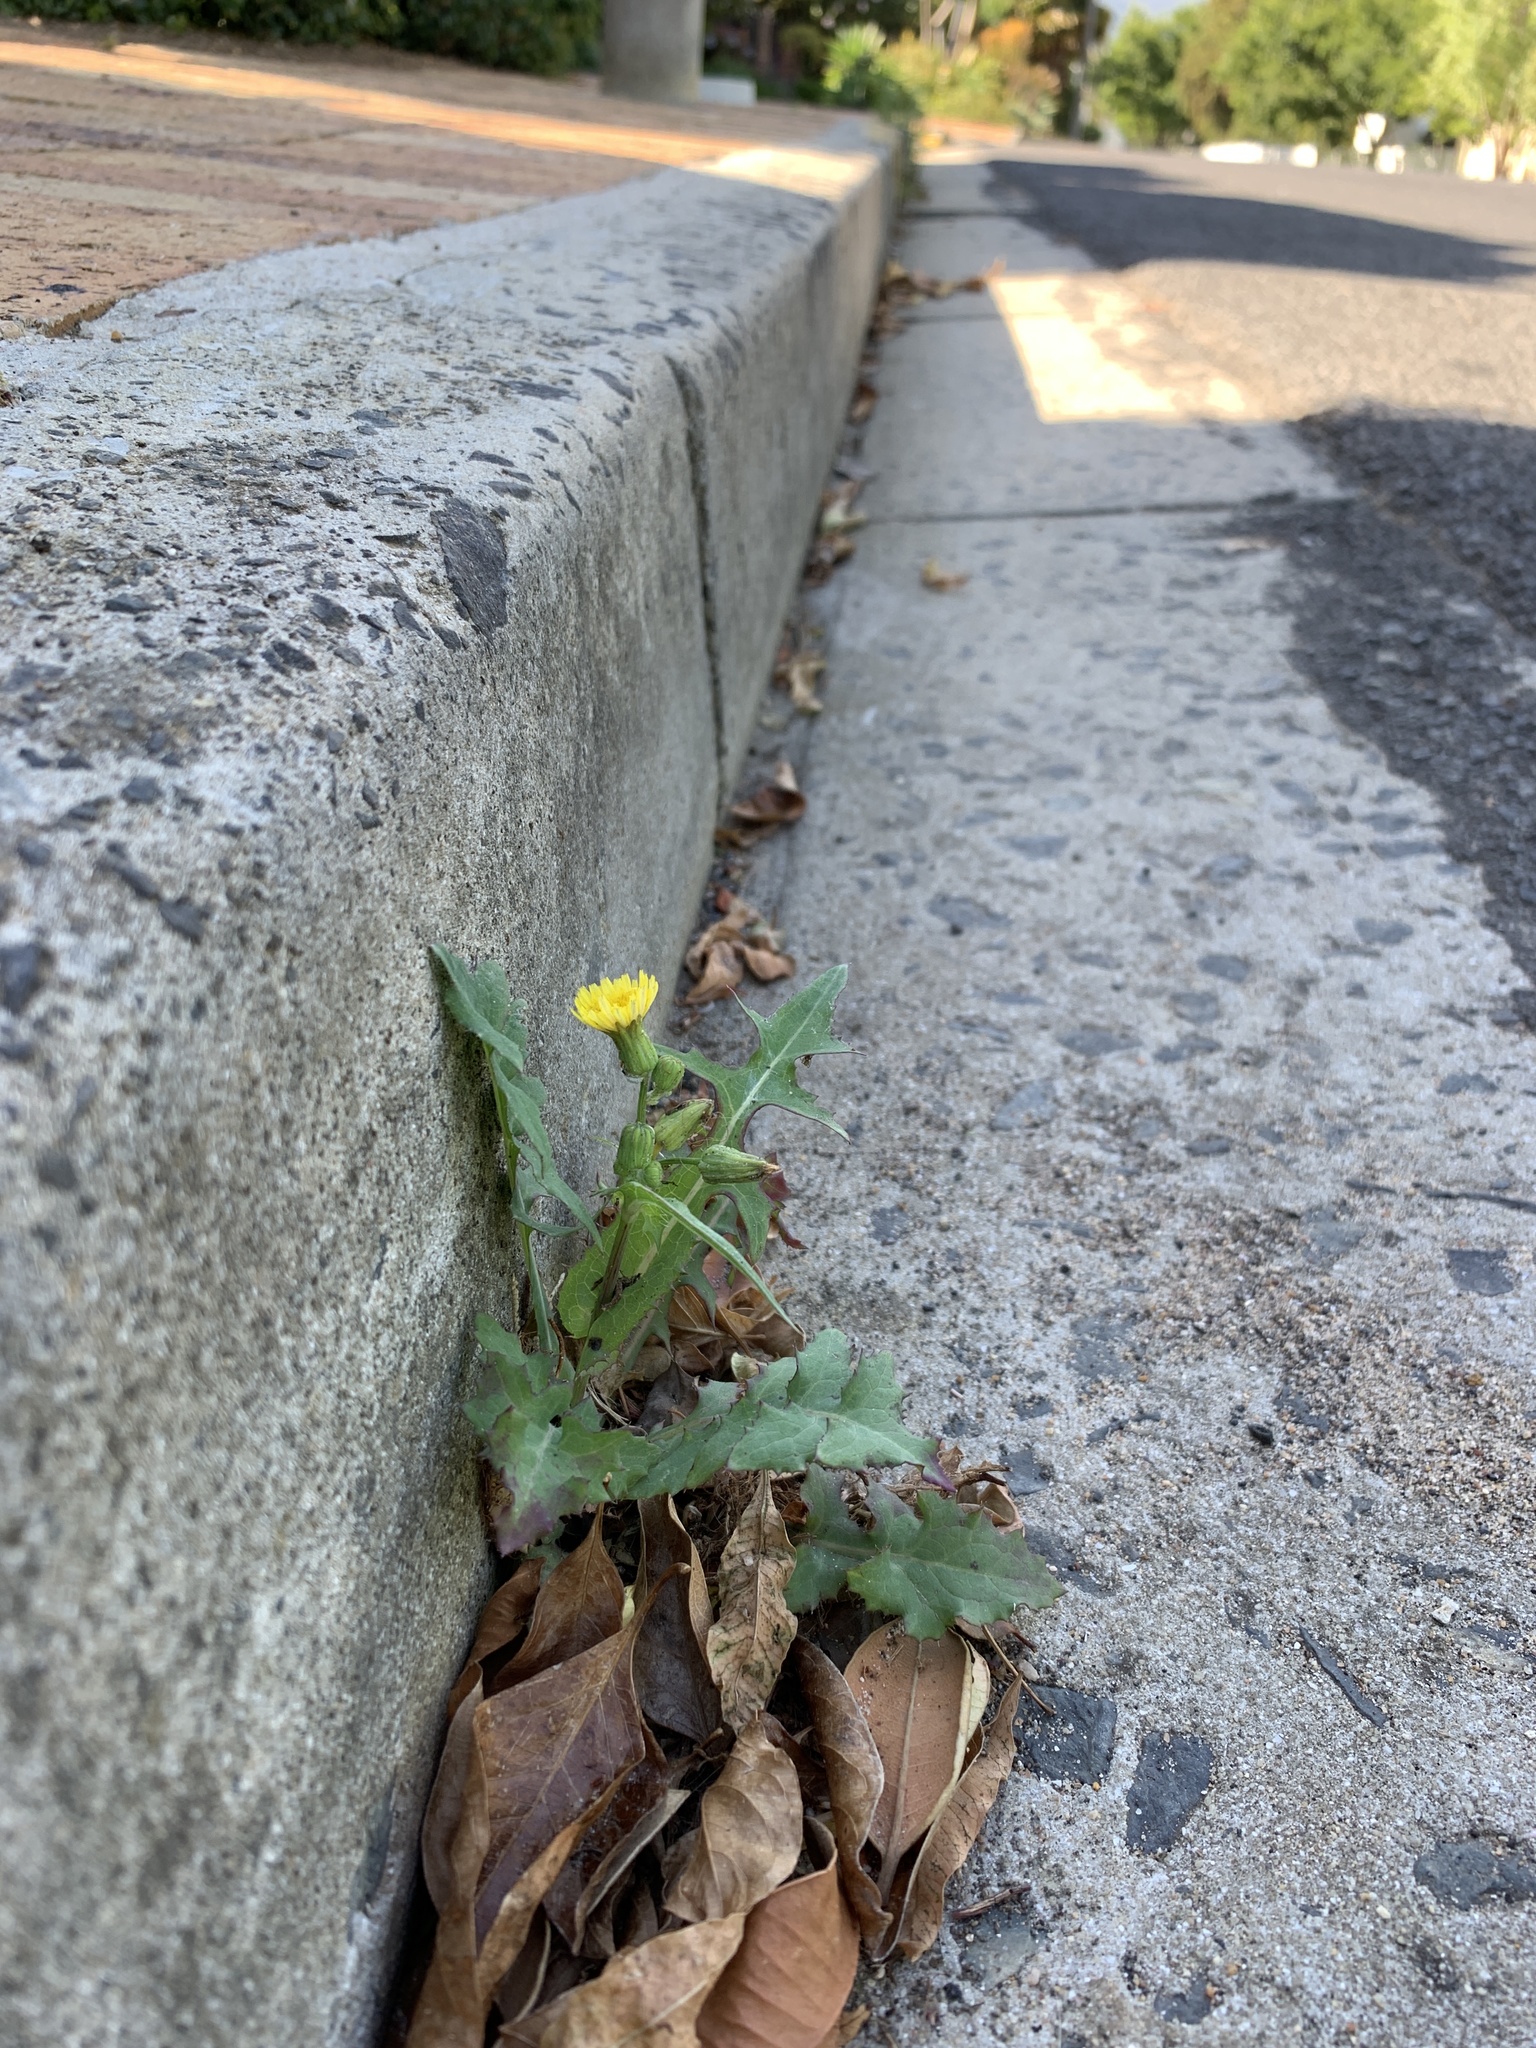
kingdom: Plantae
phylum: Tracheophyta
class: Magnoliopsida
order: Asterales
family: Asteraceae
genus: Sonchus
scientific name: Sonchus oleraceus
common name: Common sowthistle
